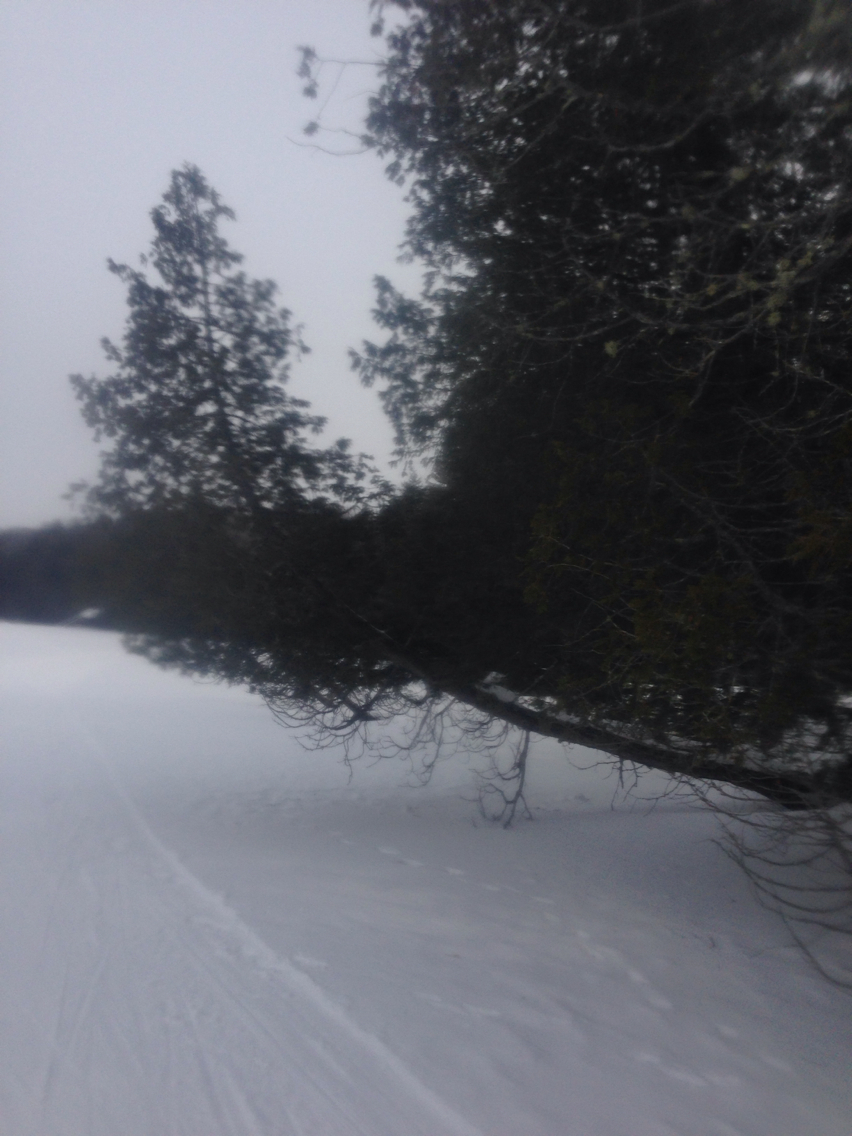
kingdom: Plantae
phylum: Tracheophyta
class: Pinopsida
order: Pinales
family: Cupressaceae
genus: Thuja
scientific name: Thuja occidentalis
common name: Northern white-cedar
